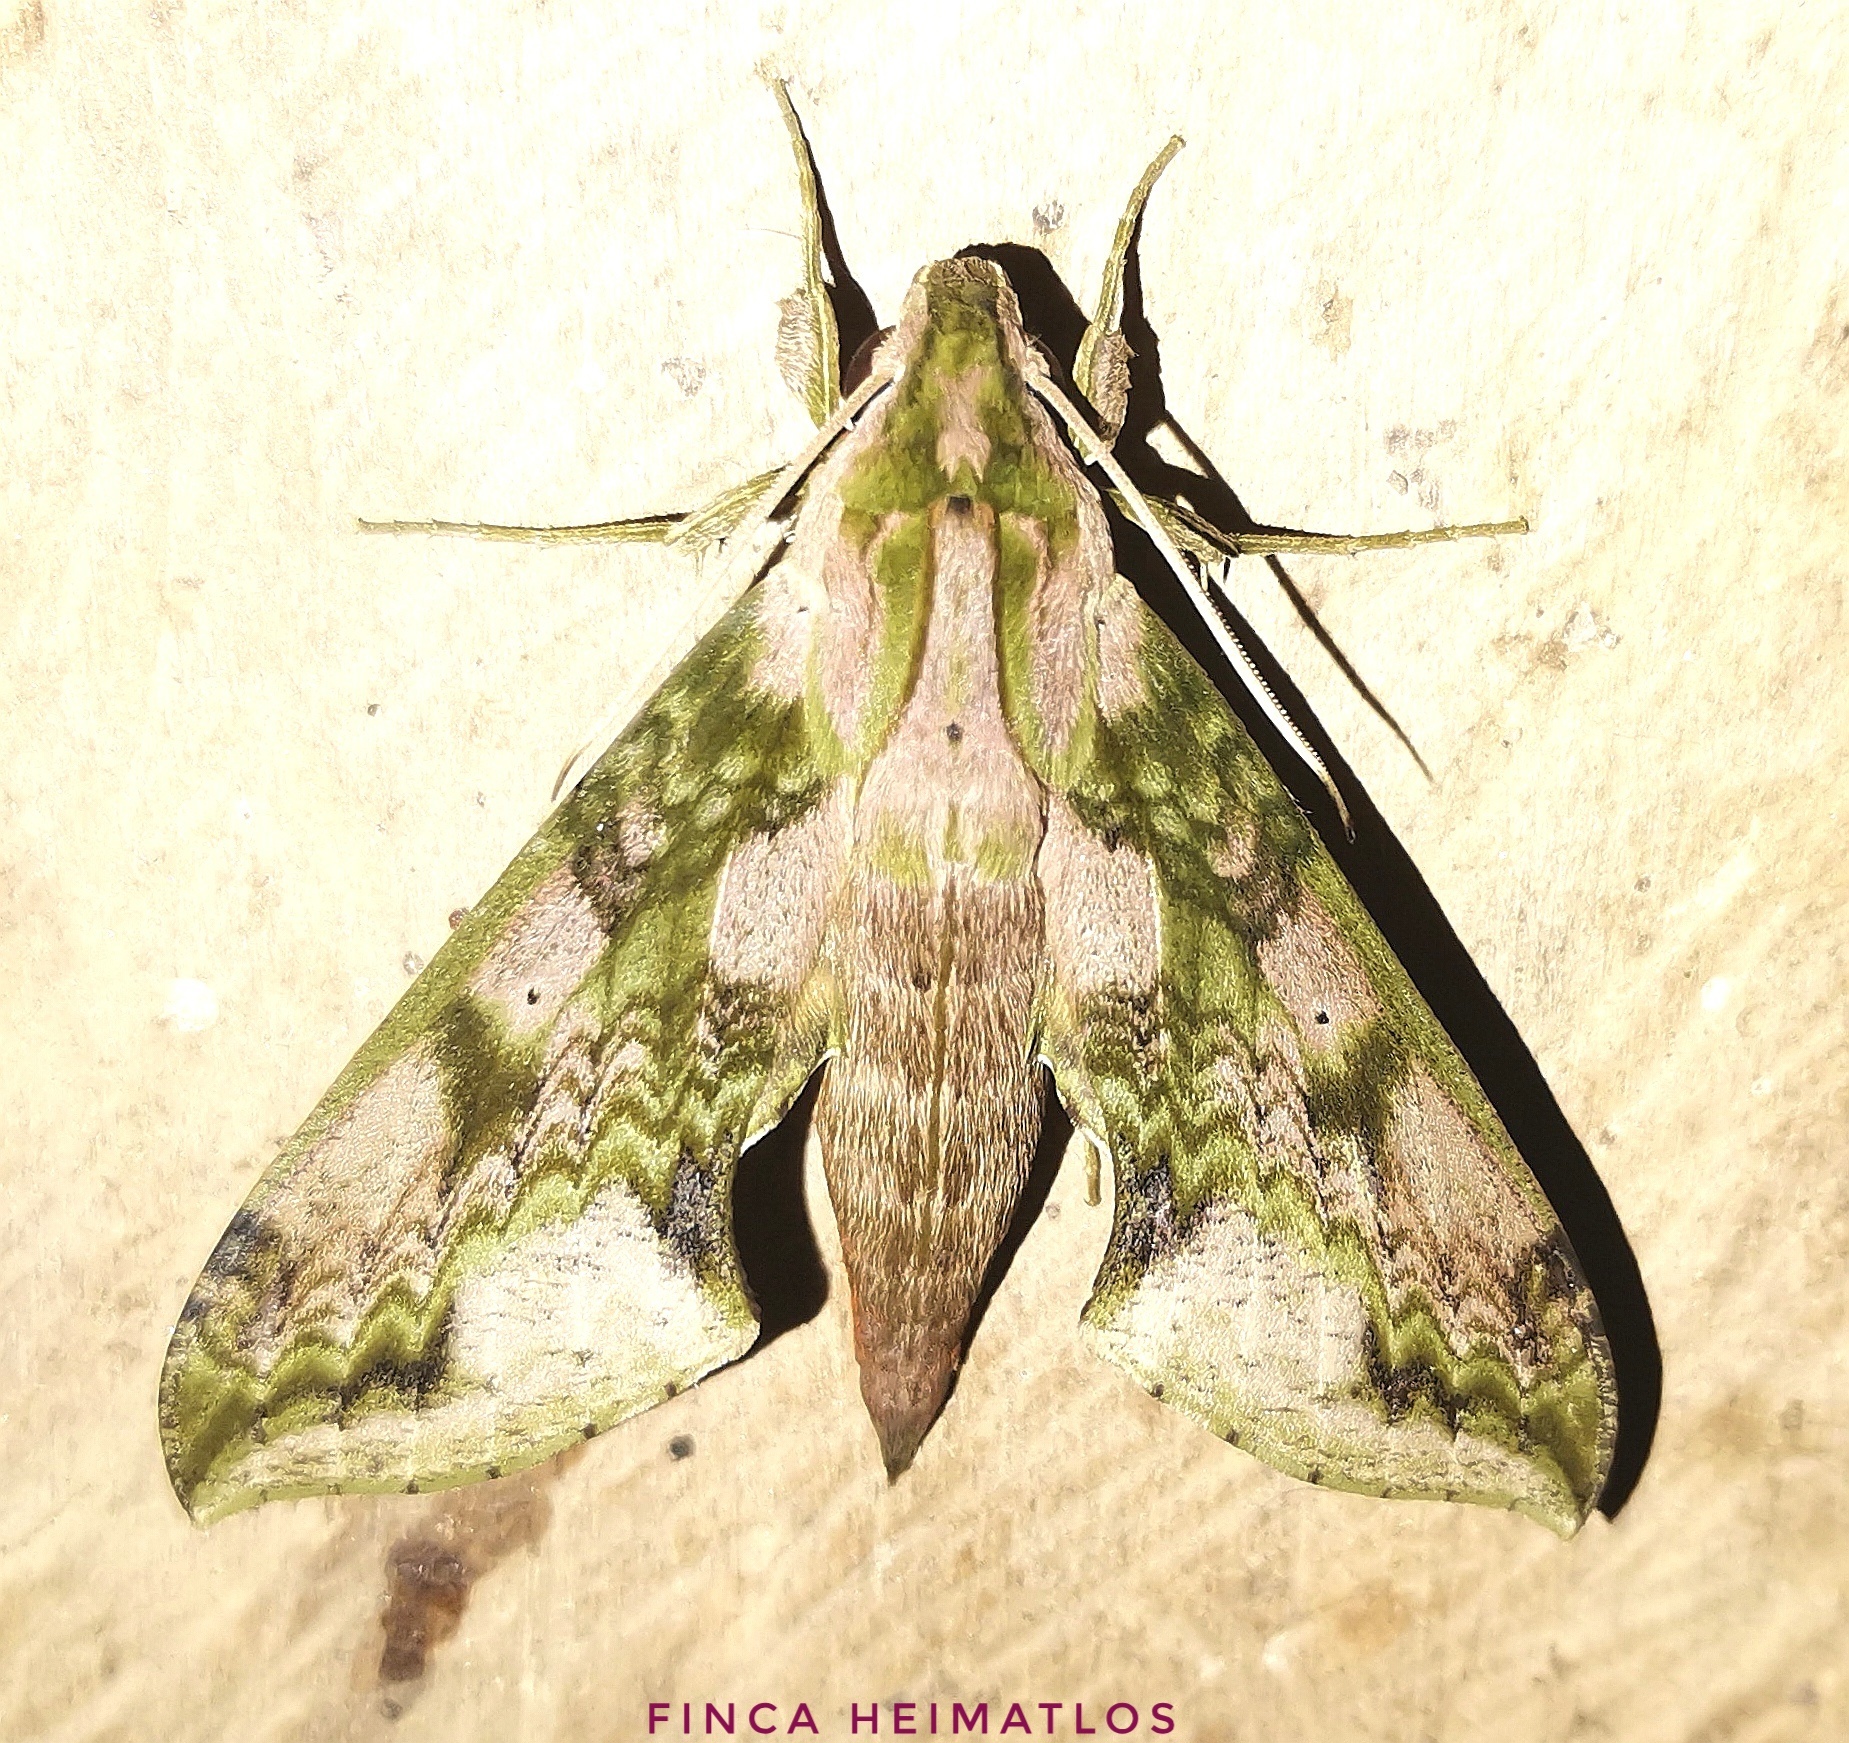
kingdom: Animalia
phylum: Arthropoda
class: Insecta
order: Lepidoptera
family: Sphingidae
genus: Xylophanes
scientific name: Xylophanes zurcheri
